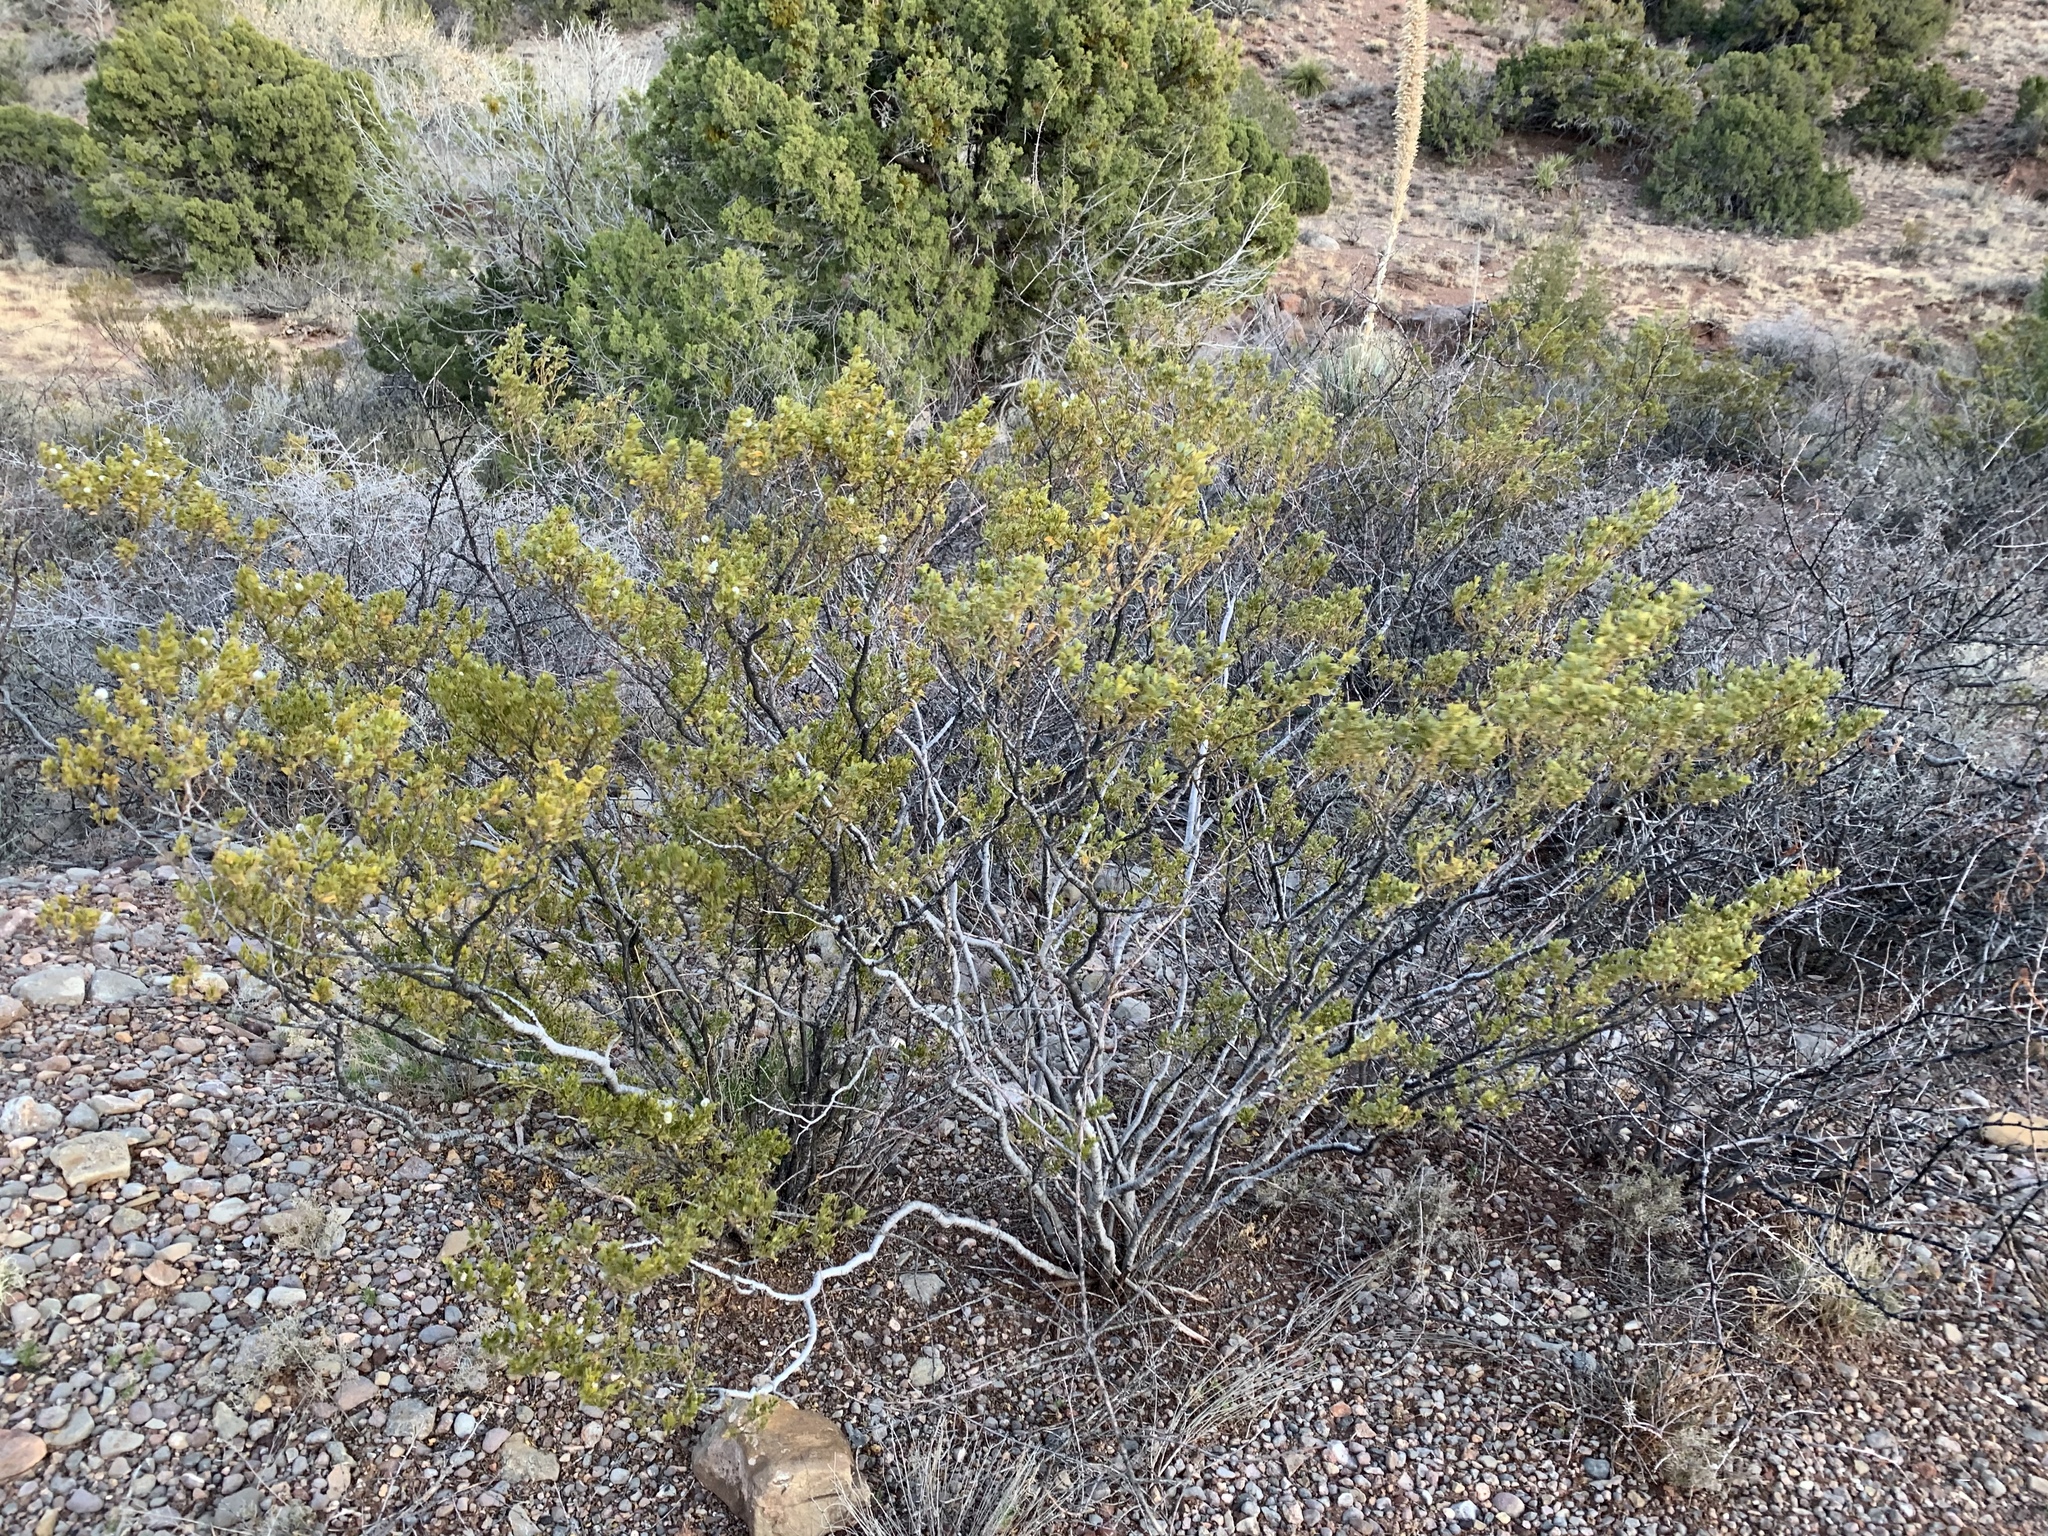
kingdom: Plantae
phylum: Tracheophyta
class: Magnoliopsida
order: Zygophyllales
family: Zygophyllaceae
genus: Larrea
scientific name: Larrea tridentata
